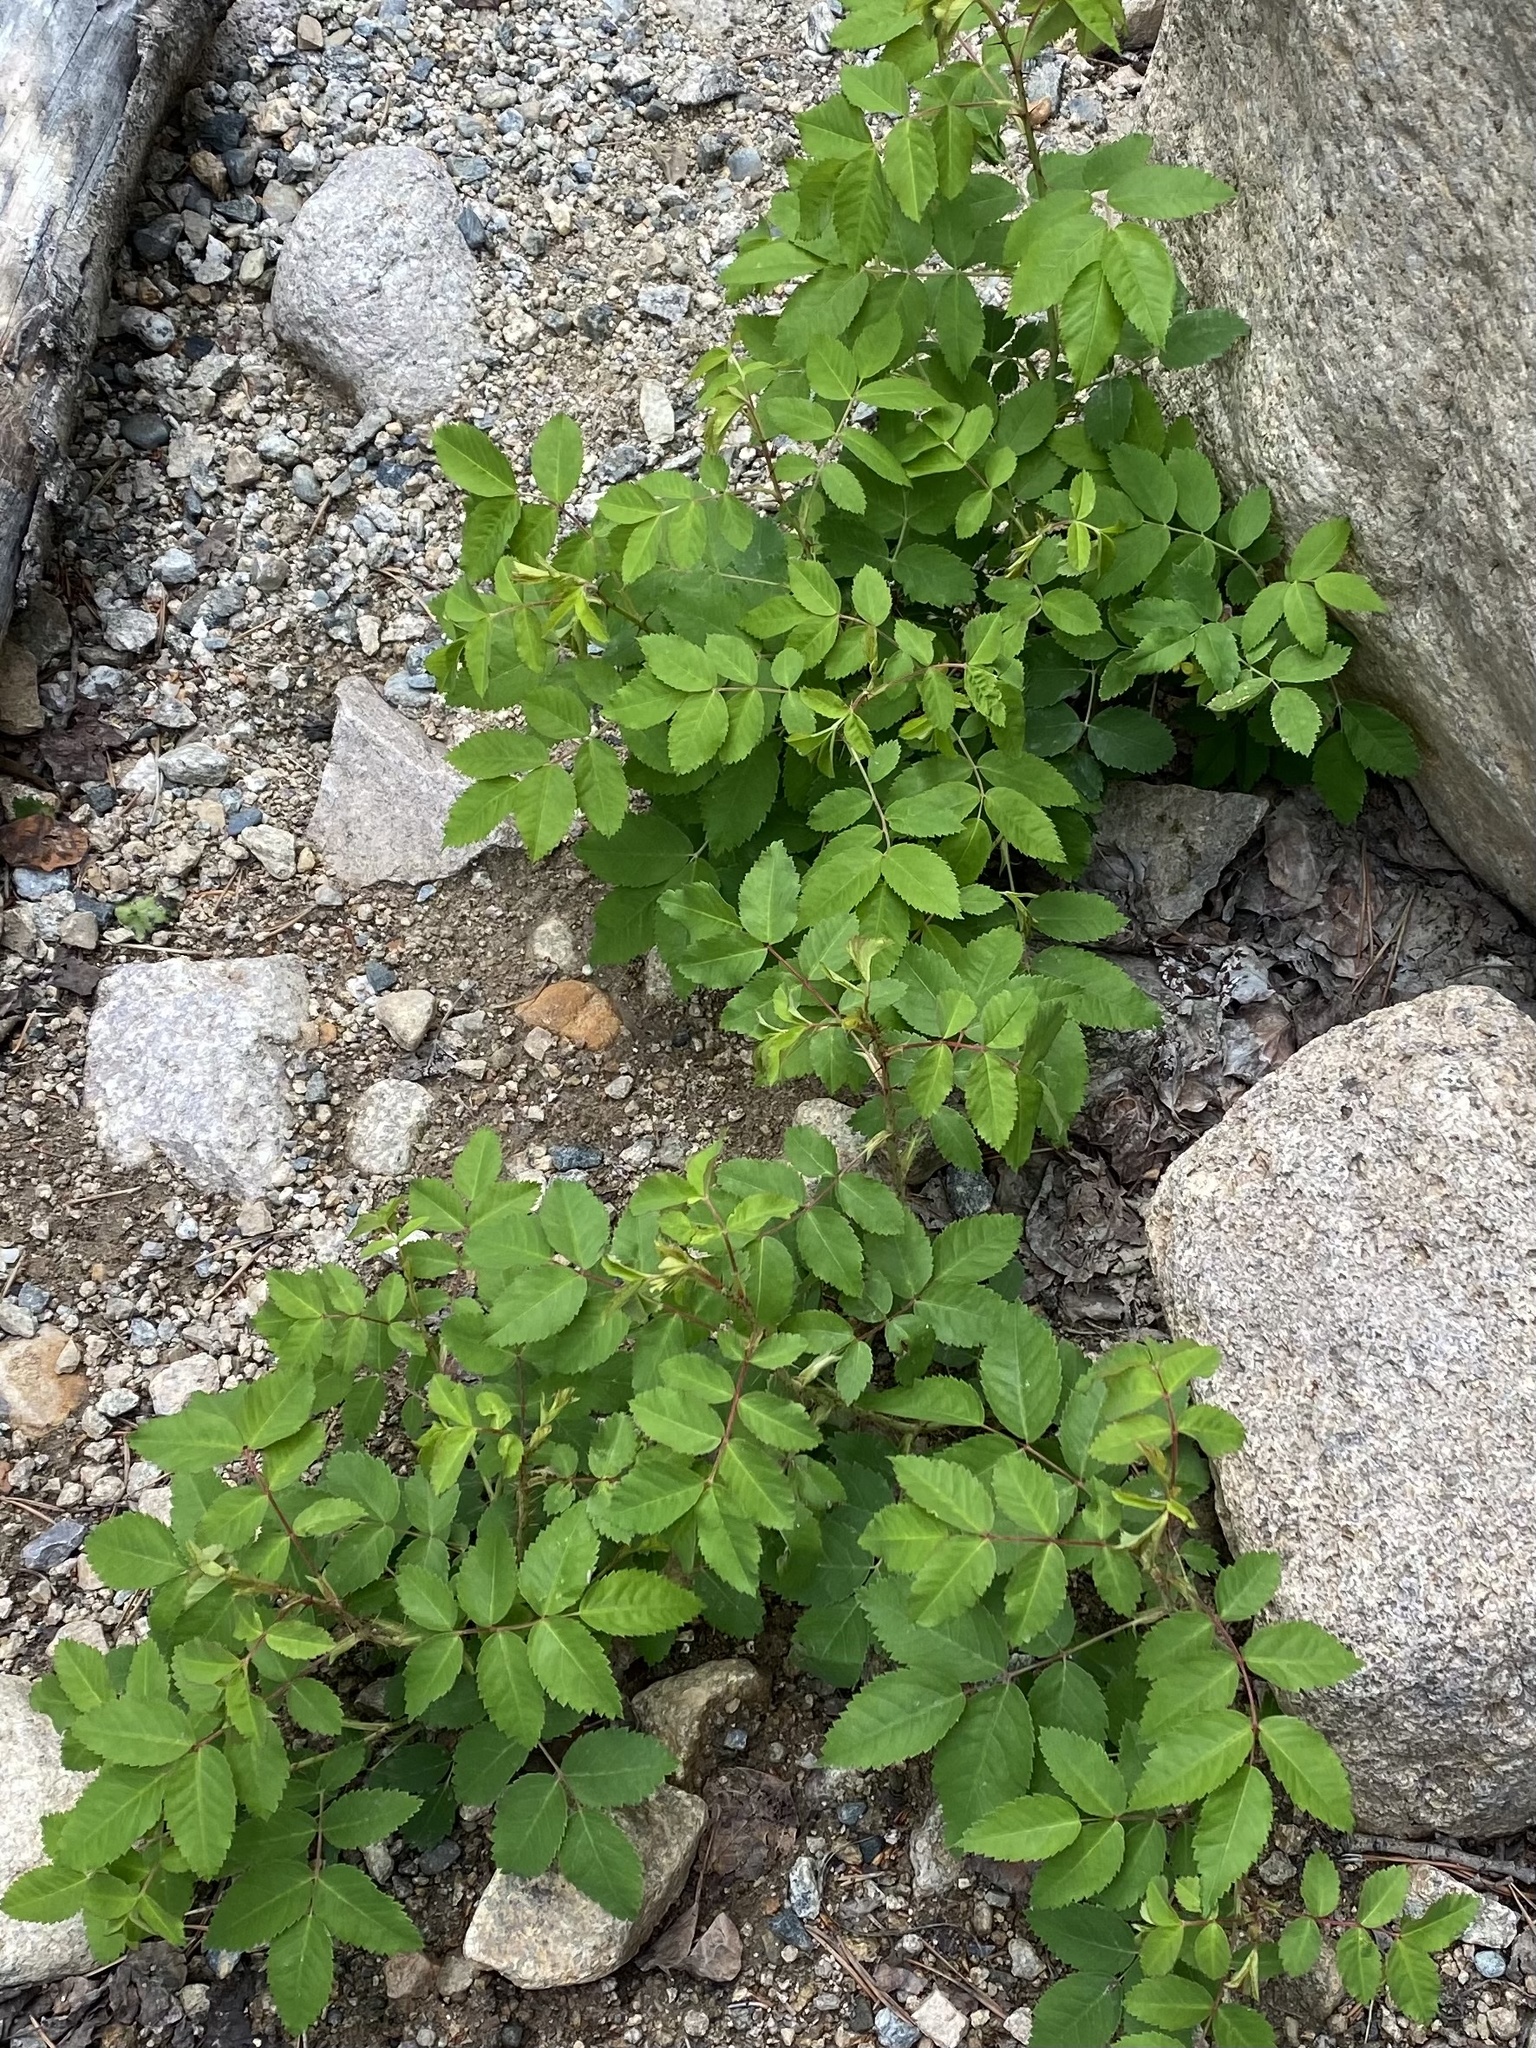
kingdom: Plantae
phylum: Tracheophyta
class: Magnoliopsida
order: Rosales
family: Rosaceae
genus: Rosa
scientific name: Rosa woodsii
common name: Woods's rose
